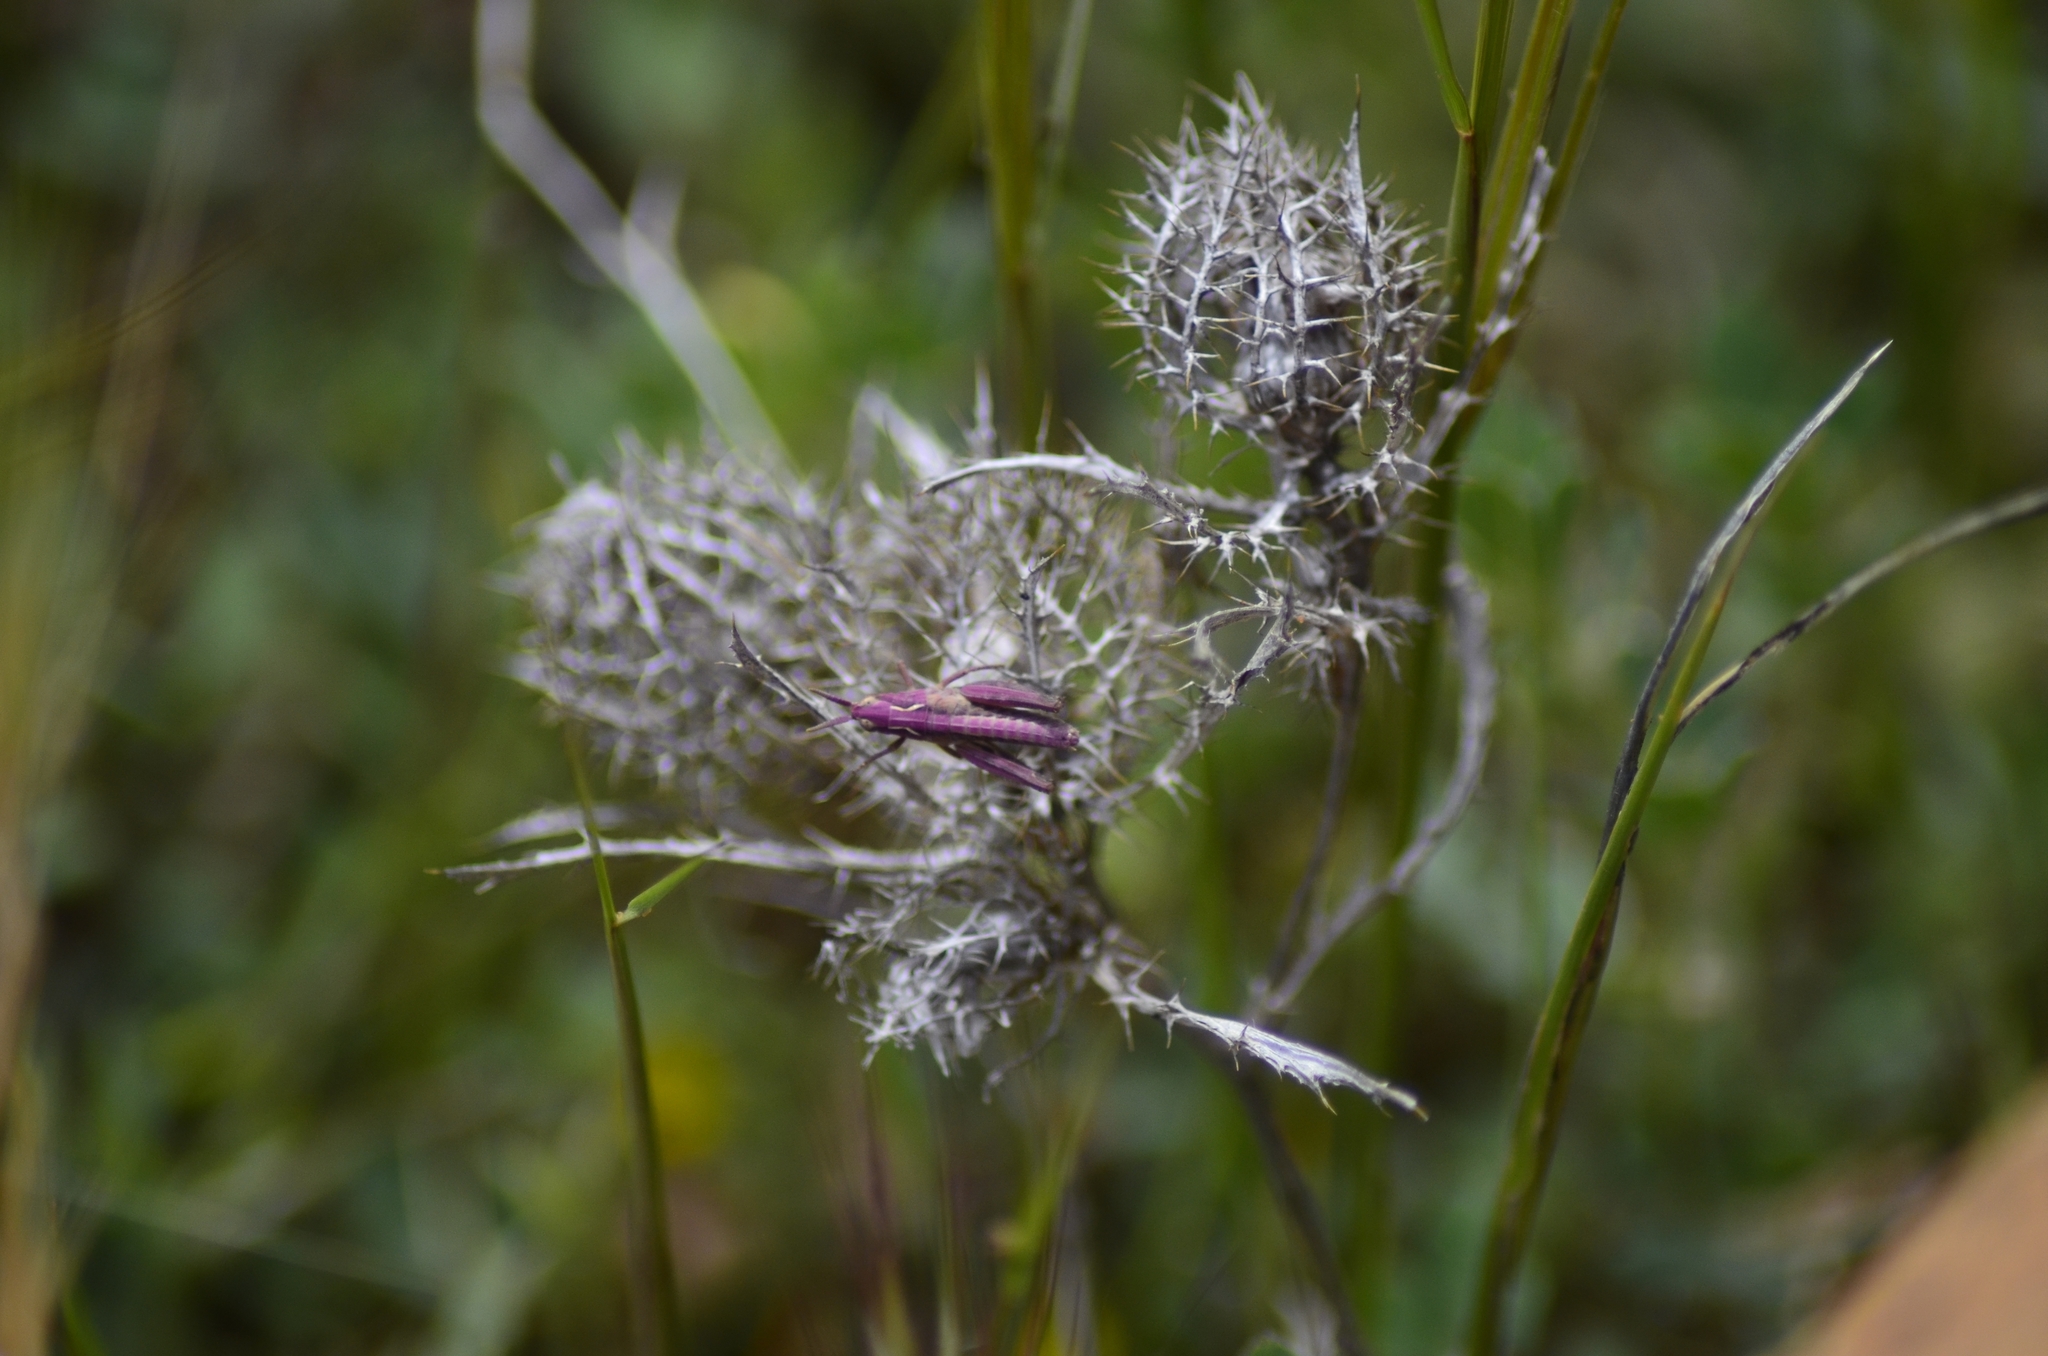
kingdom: Plantae
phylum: Tracheophyta
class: Magnoliopsida
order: Asterales
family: Asteraceae
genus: Atractylis
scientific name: Atractylis cancellata
